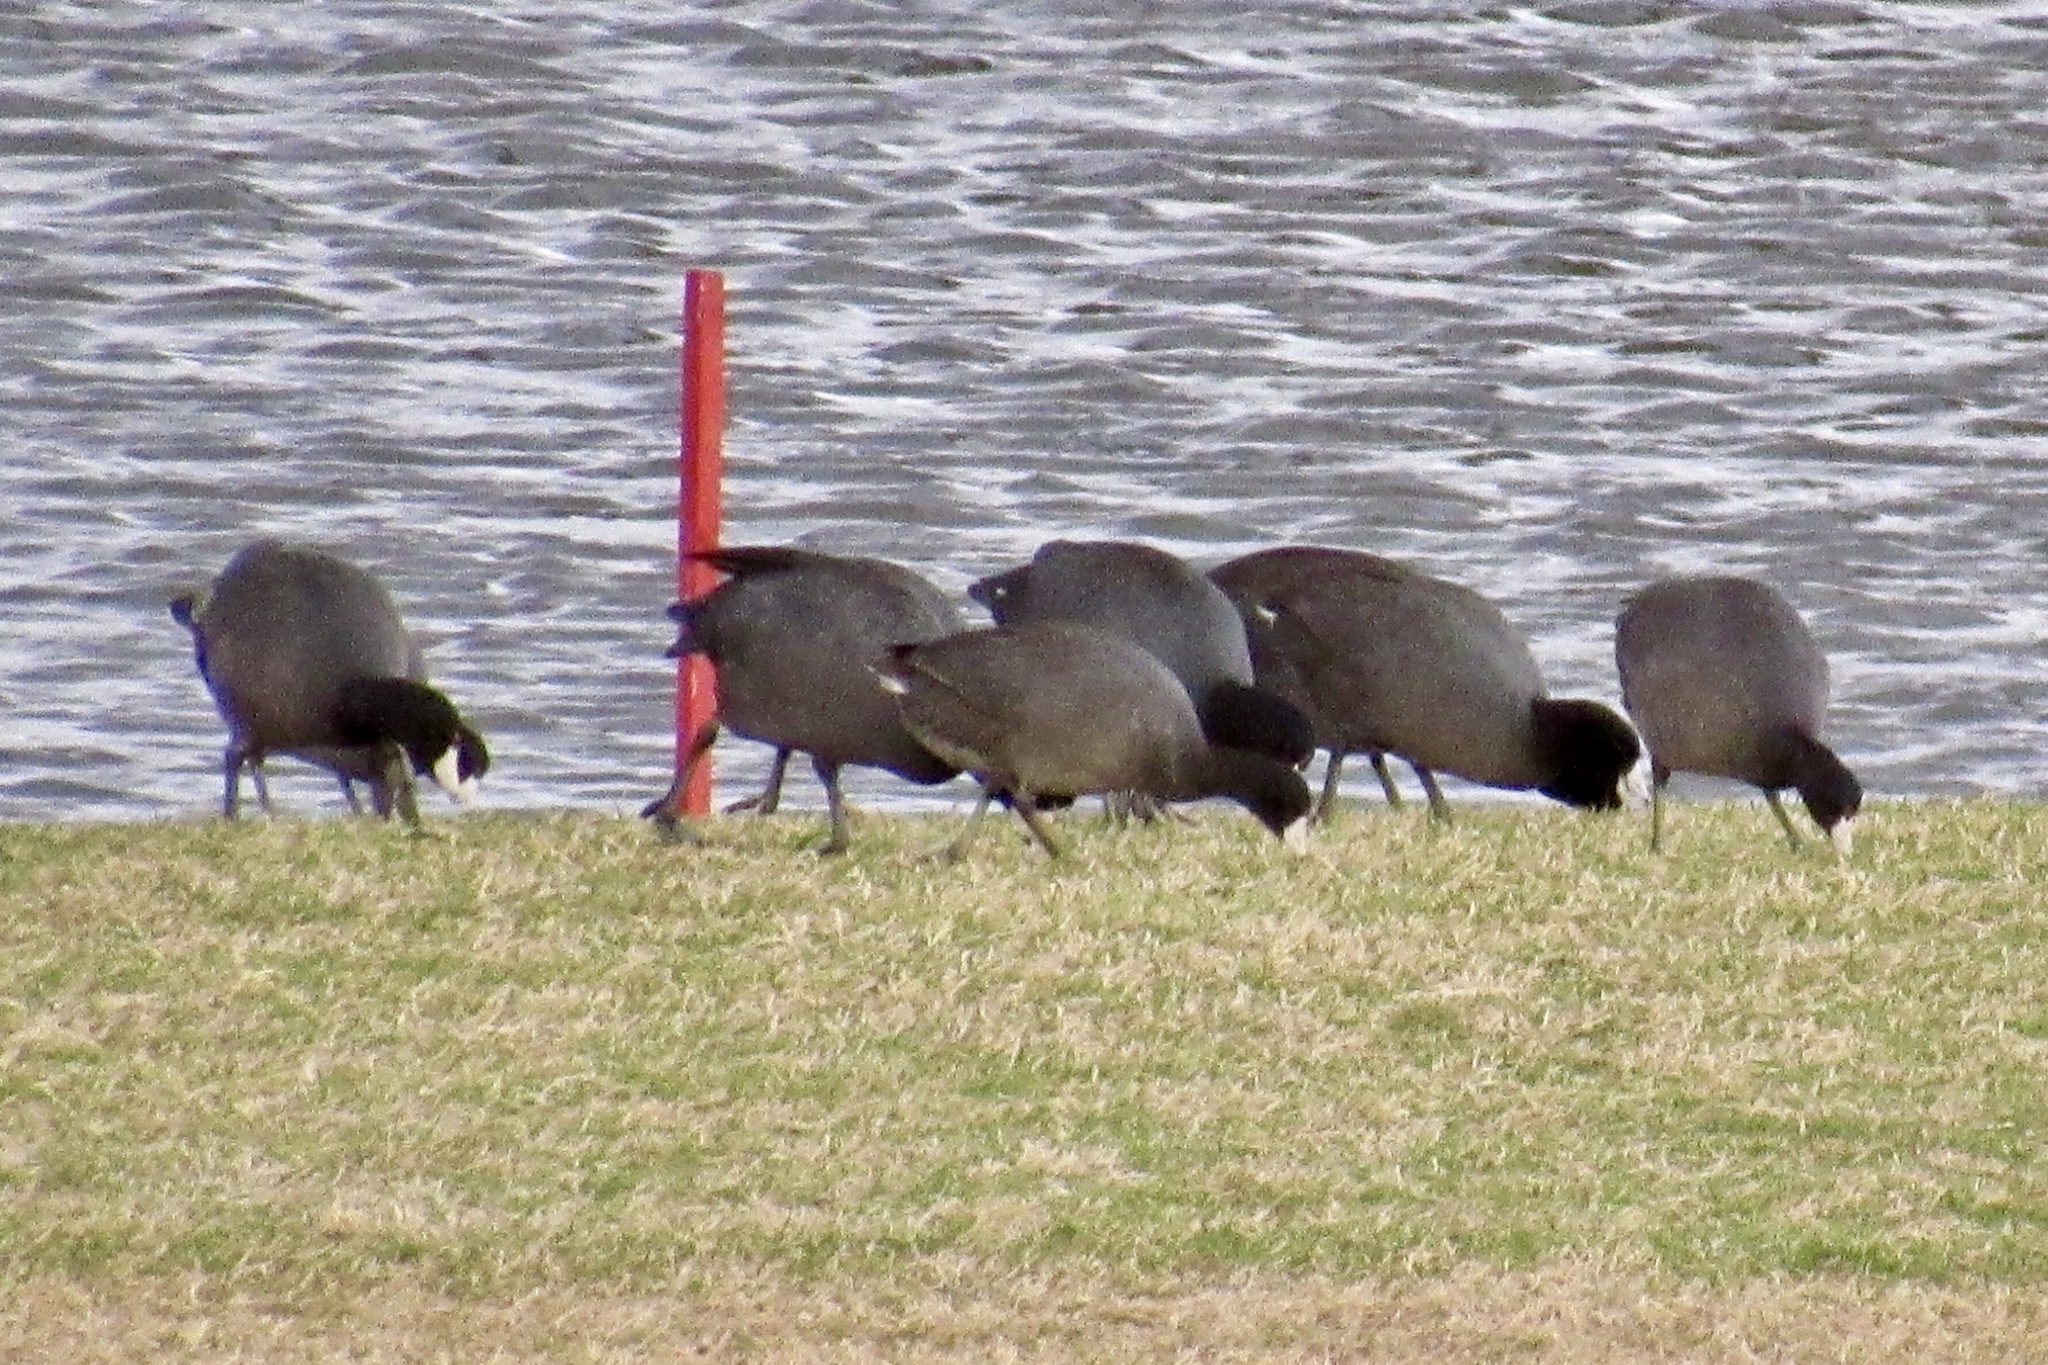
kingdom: Animalia
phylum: Chordata
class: Aves
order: Gruiformes
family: Rallidae
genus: Fulica
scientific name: Fulica americana
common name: American coot
